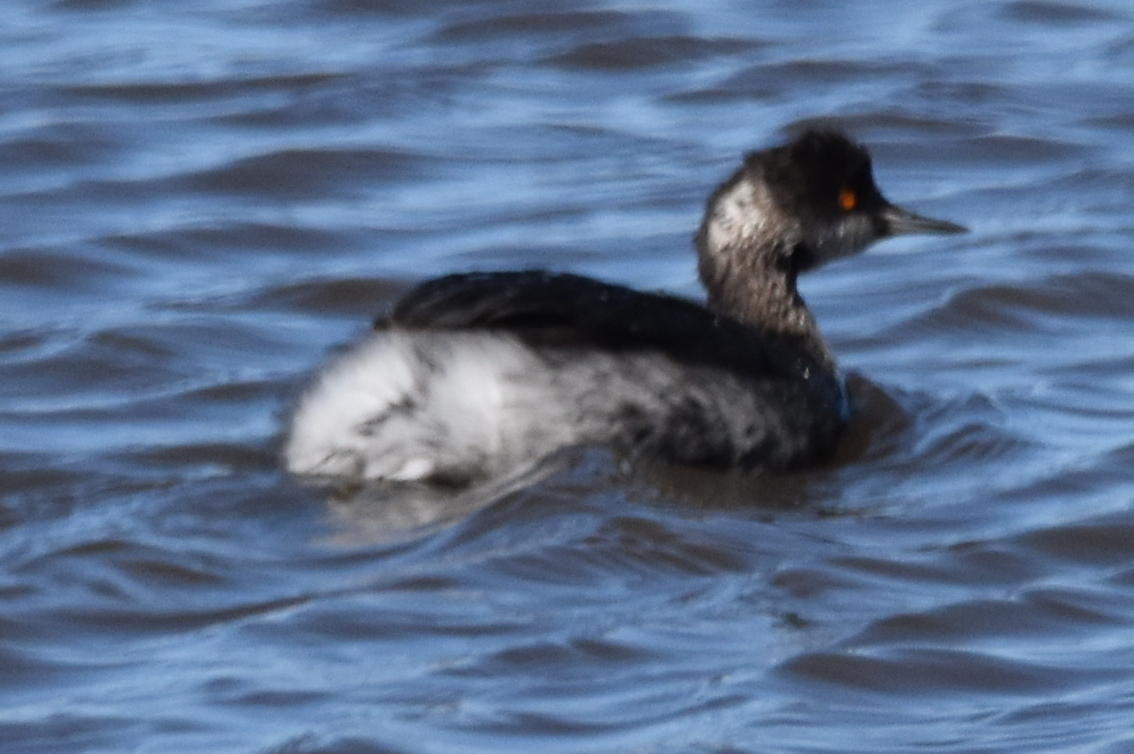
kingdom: Animalia
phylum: Chordata
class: Aves
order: Podicipediformes
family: Podicipedidae
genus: Podiceps
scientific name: Podiceps nigricollis
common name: Black-necked grebe
